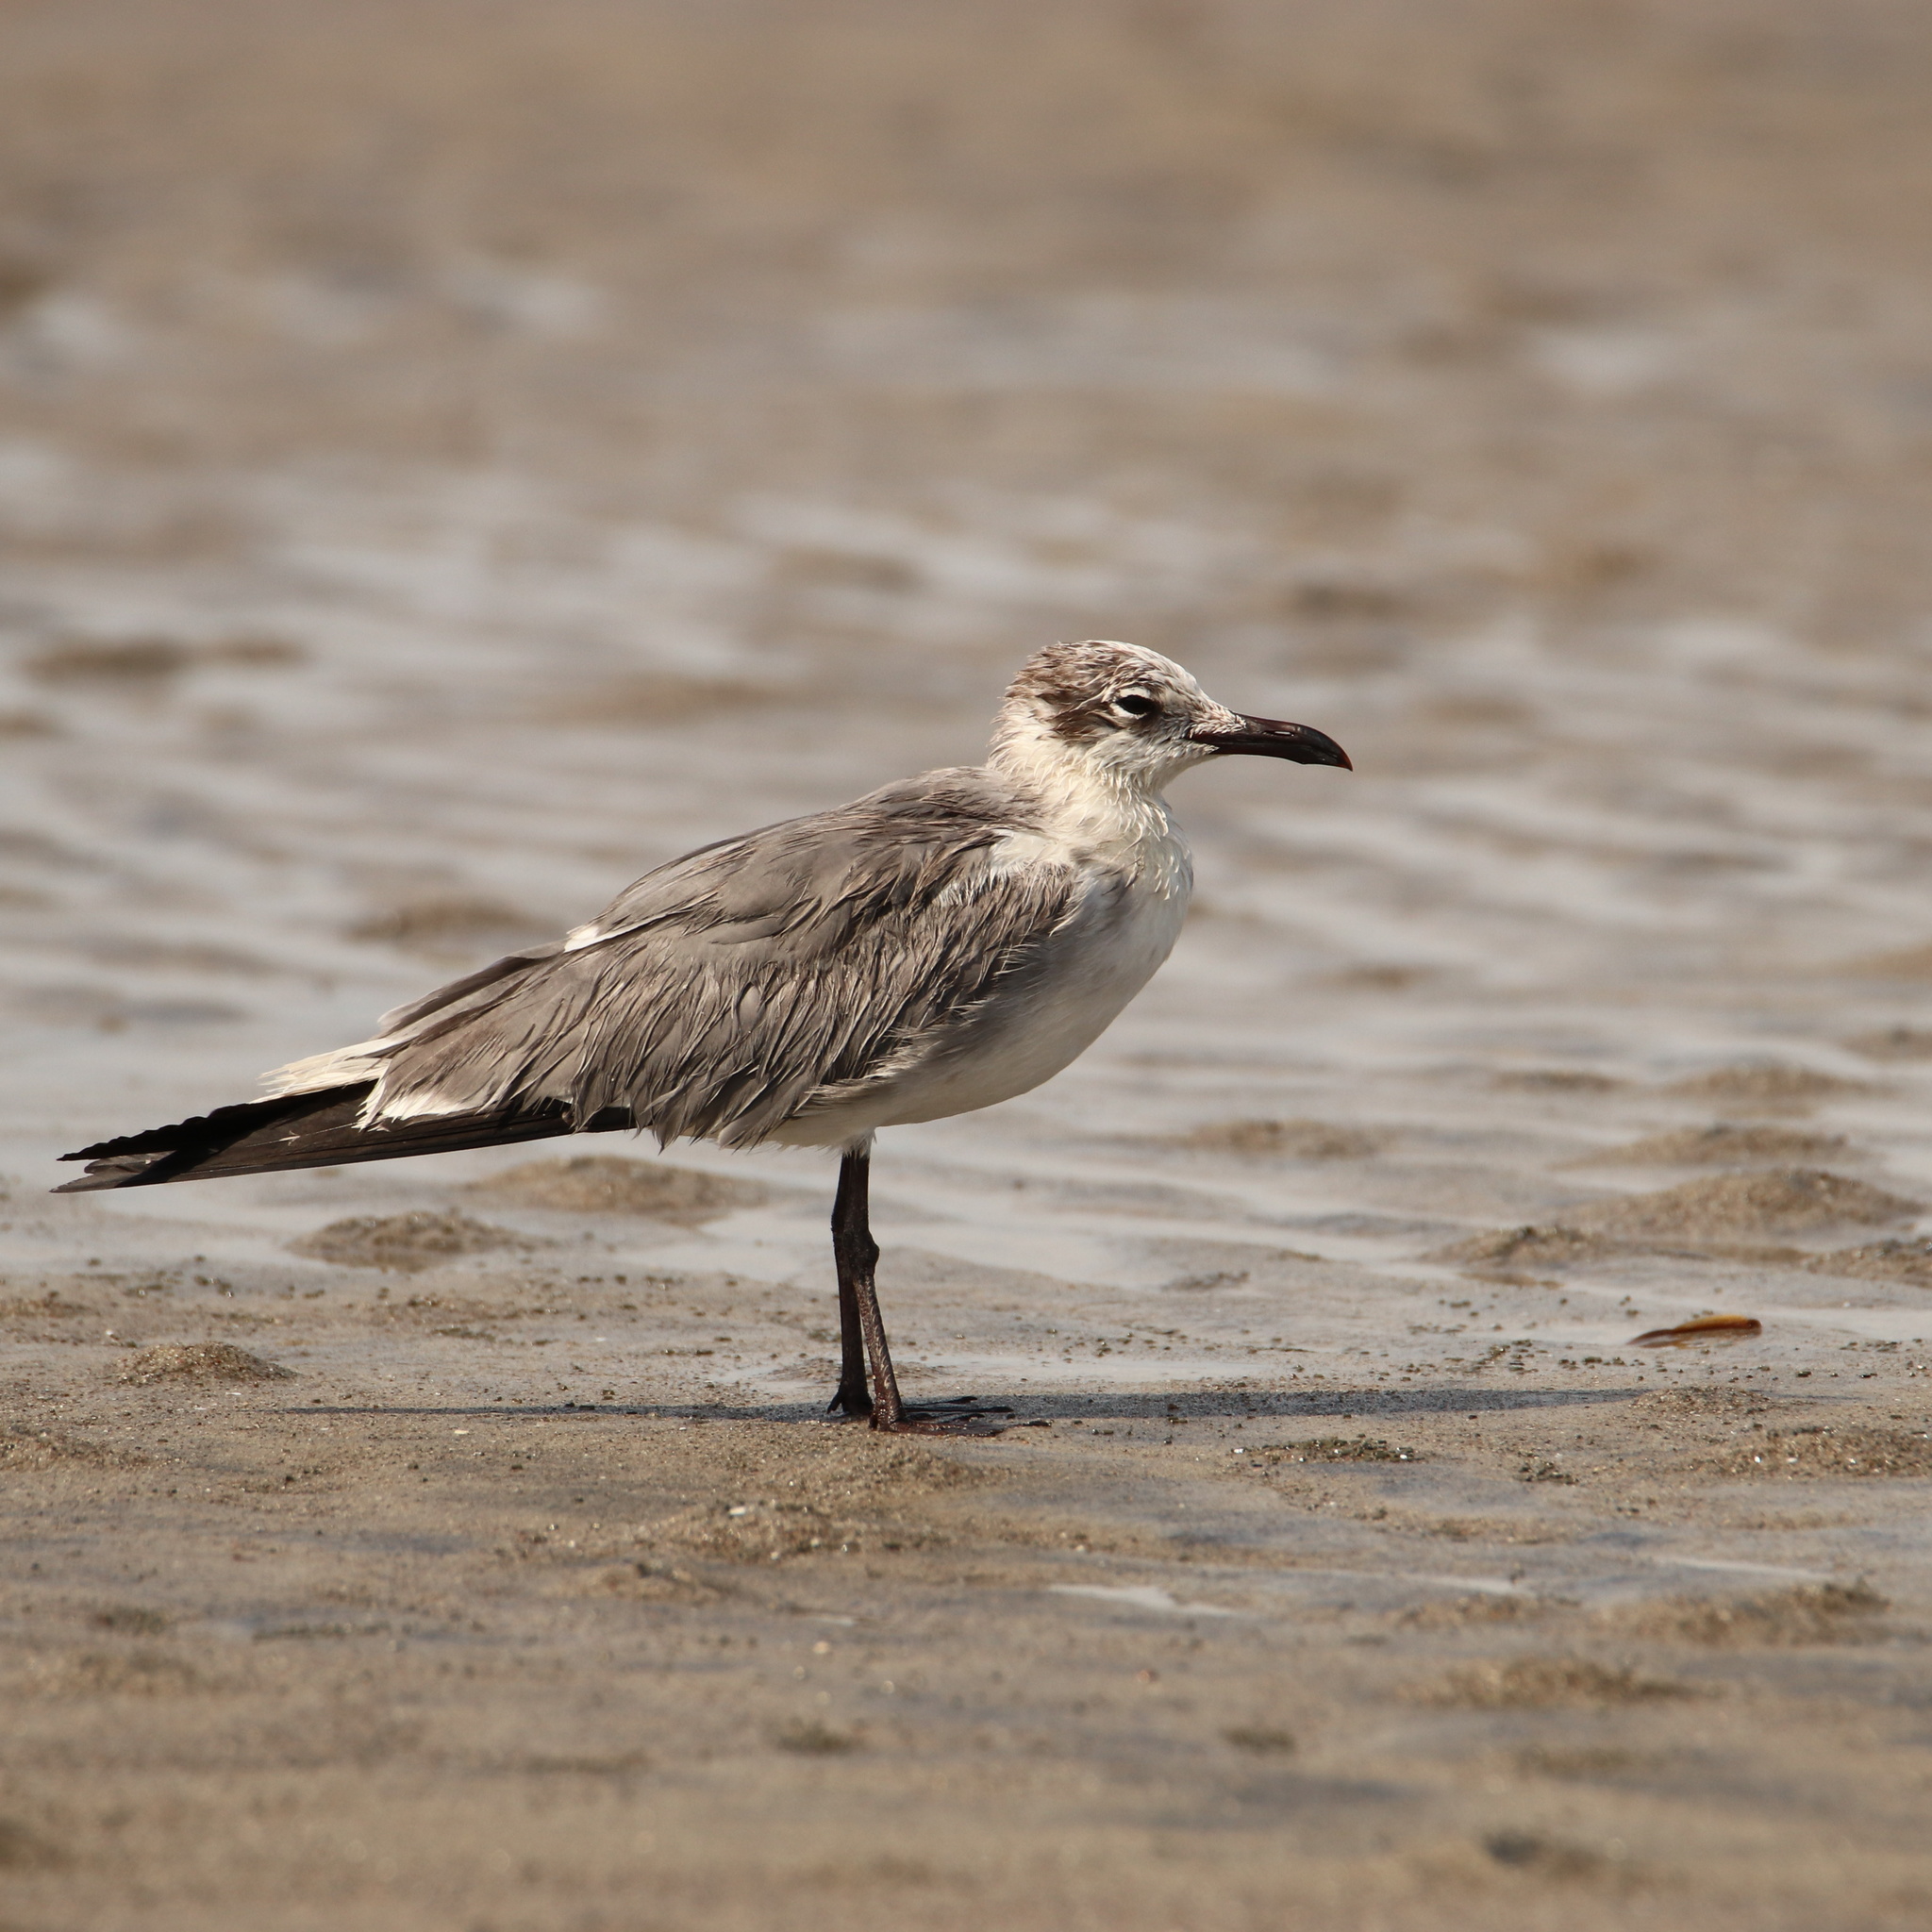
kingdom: Animalia
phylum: Chordata
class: Aves
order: Charadriiformes
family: Laridae
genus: Leucophaeus
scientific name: Leucophaeus atricilla
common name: Laughing gull
